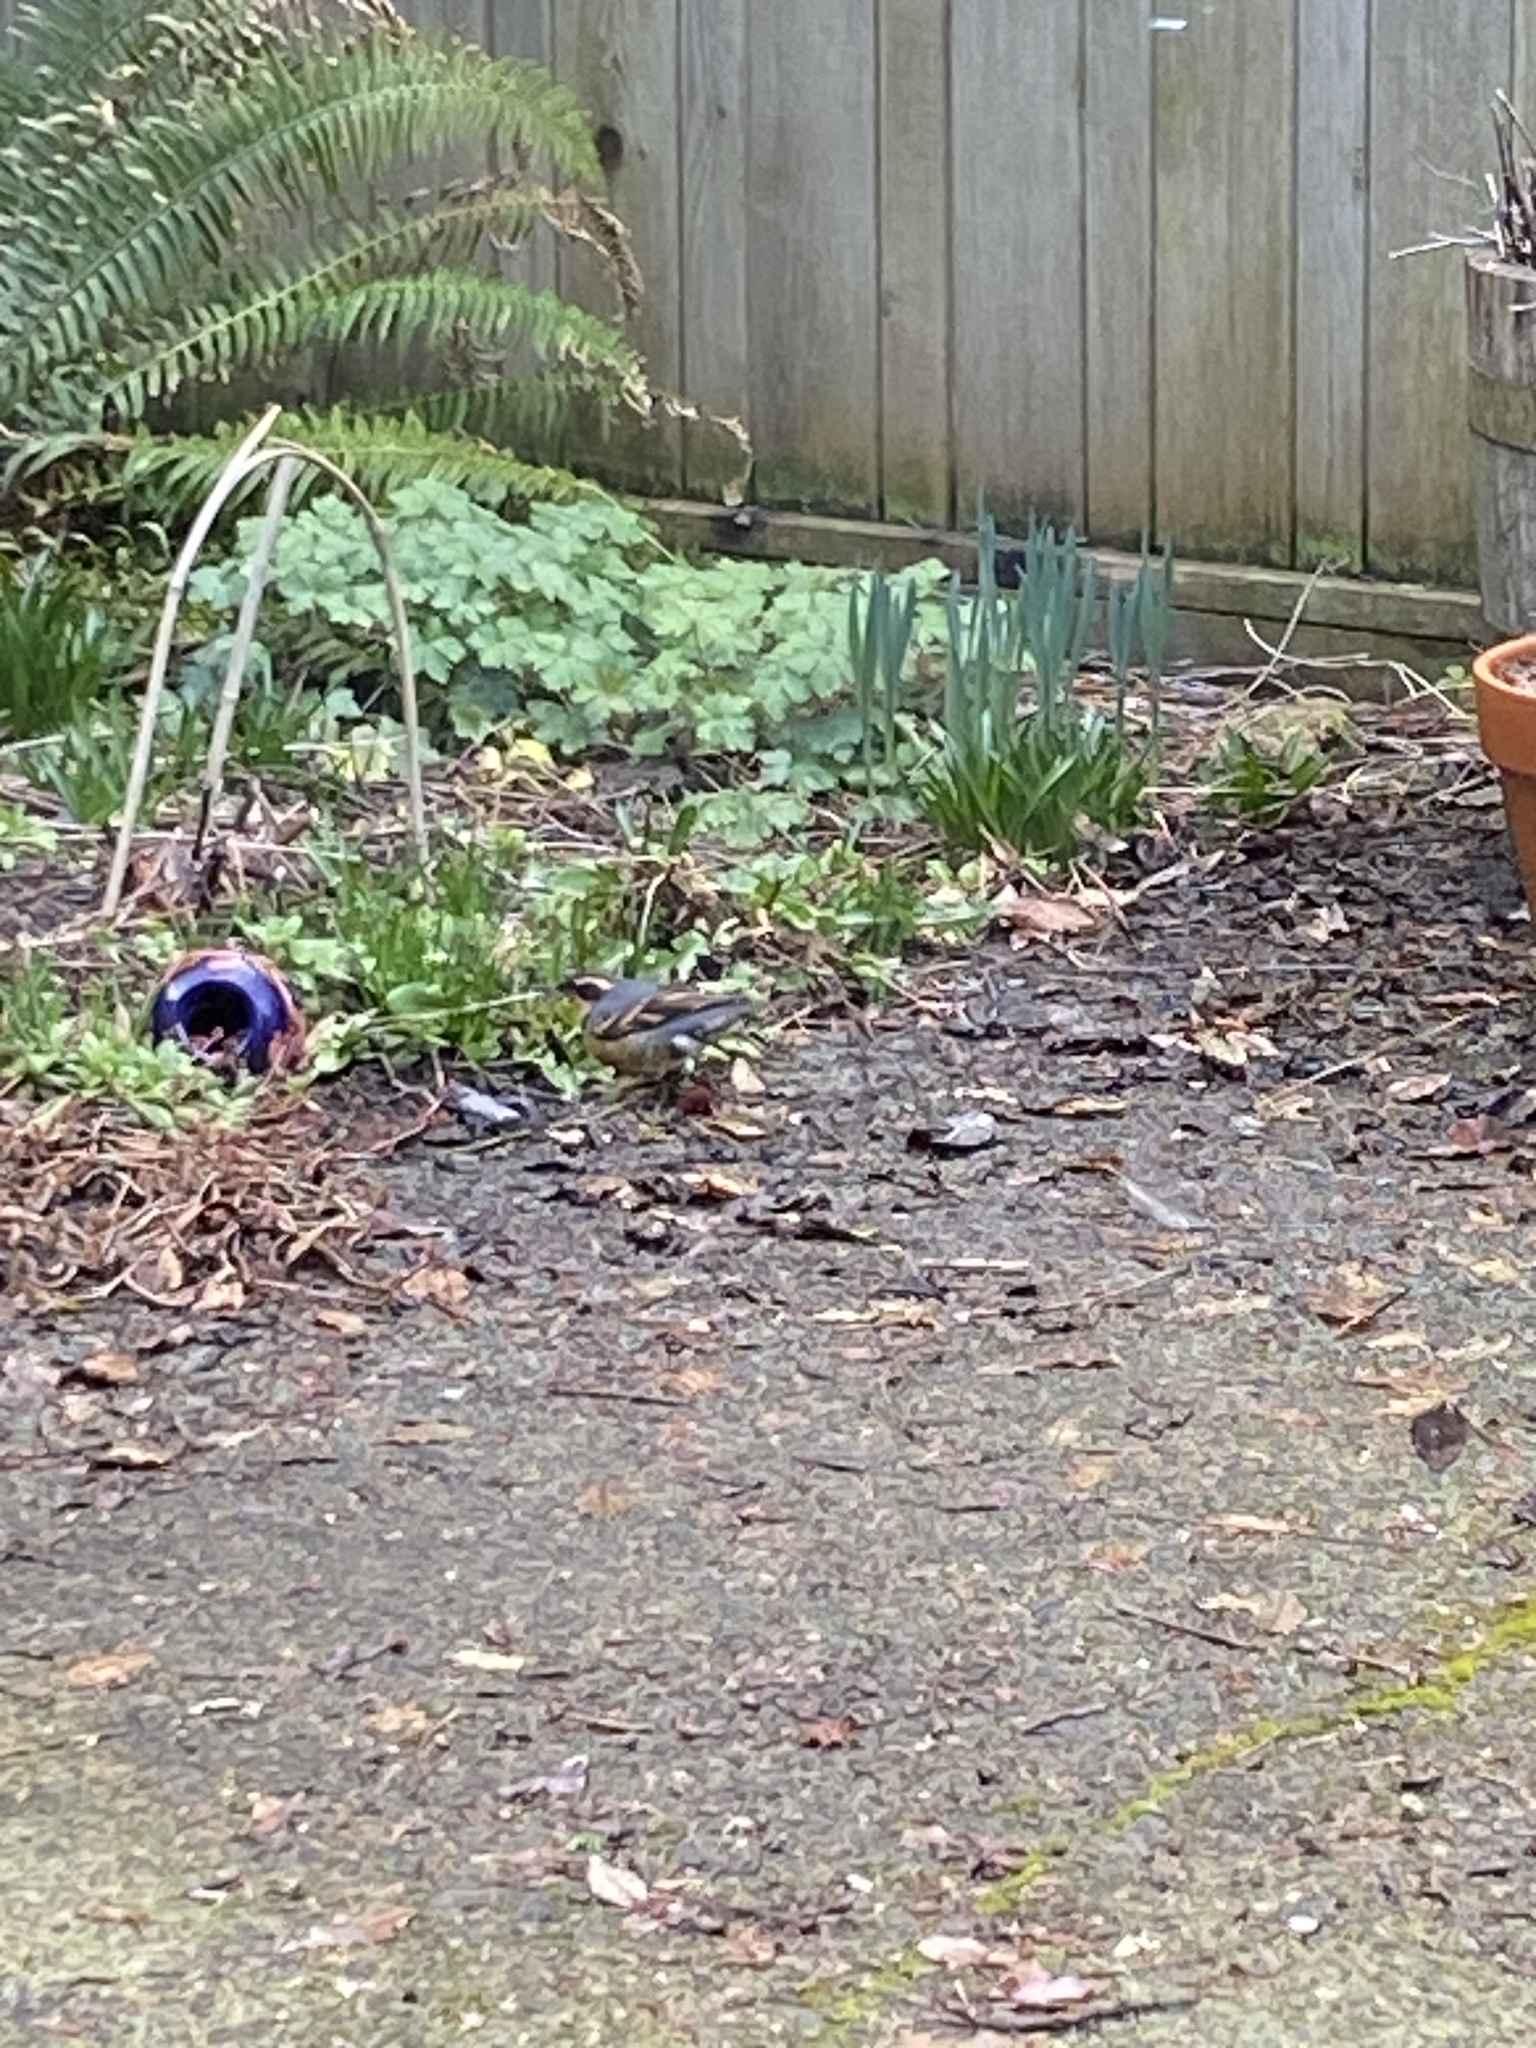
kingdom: Animalia
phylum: Chordata
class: Aves
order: Passeriformes
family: Turdidae
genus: Ixoreus
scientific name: Ixoreus naevius
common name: Varied thrush
